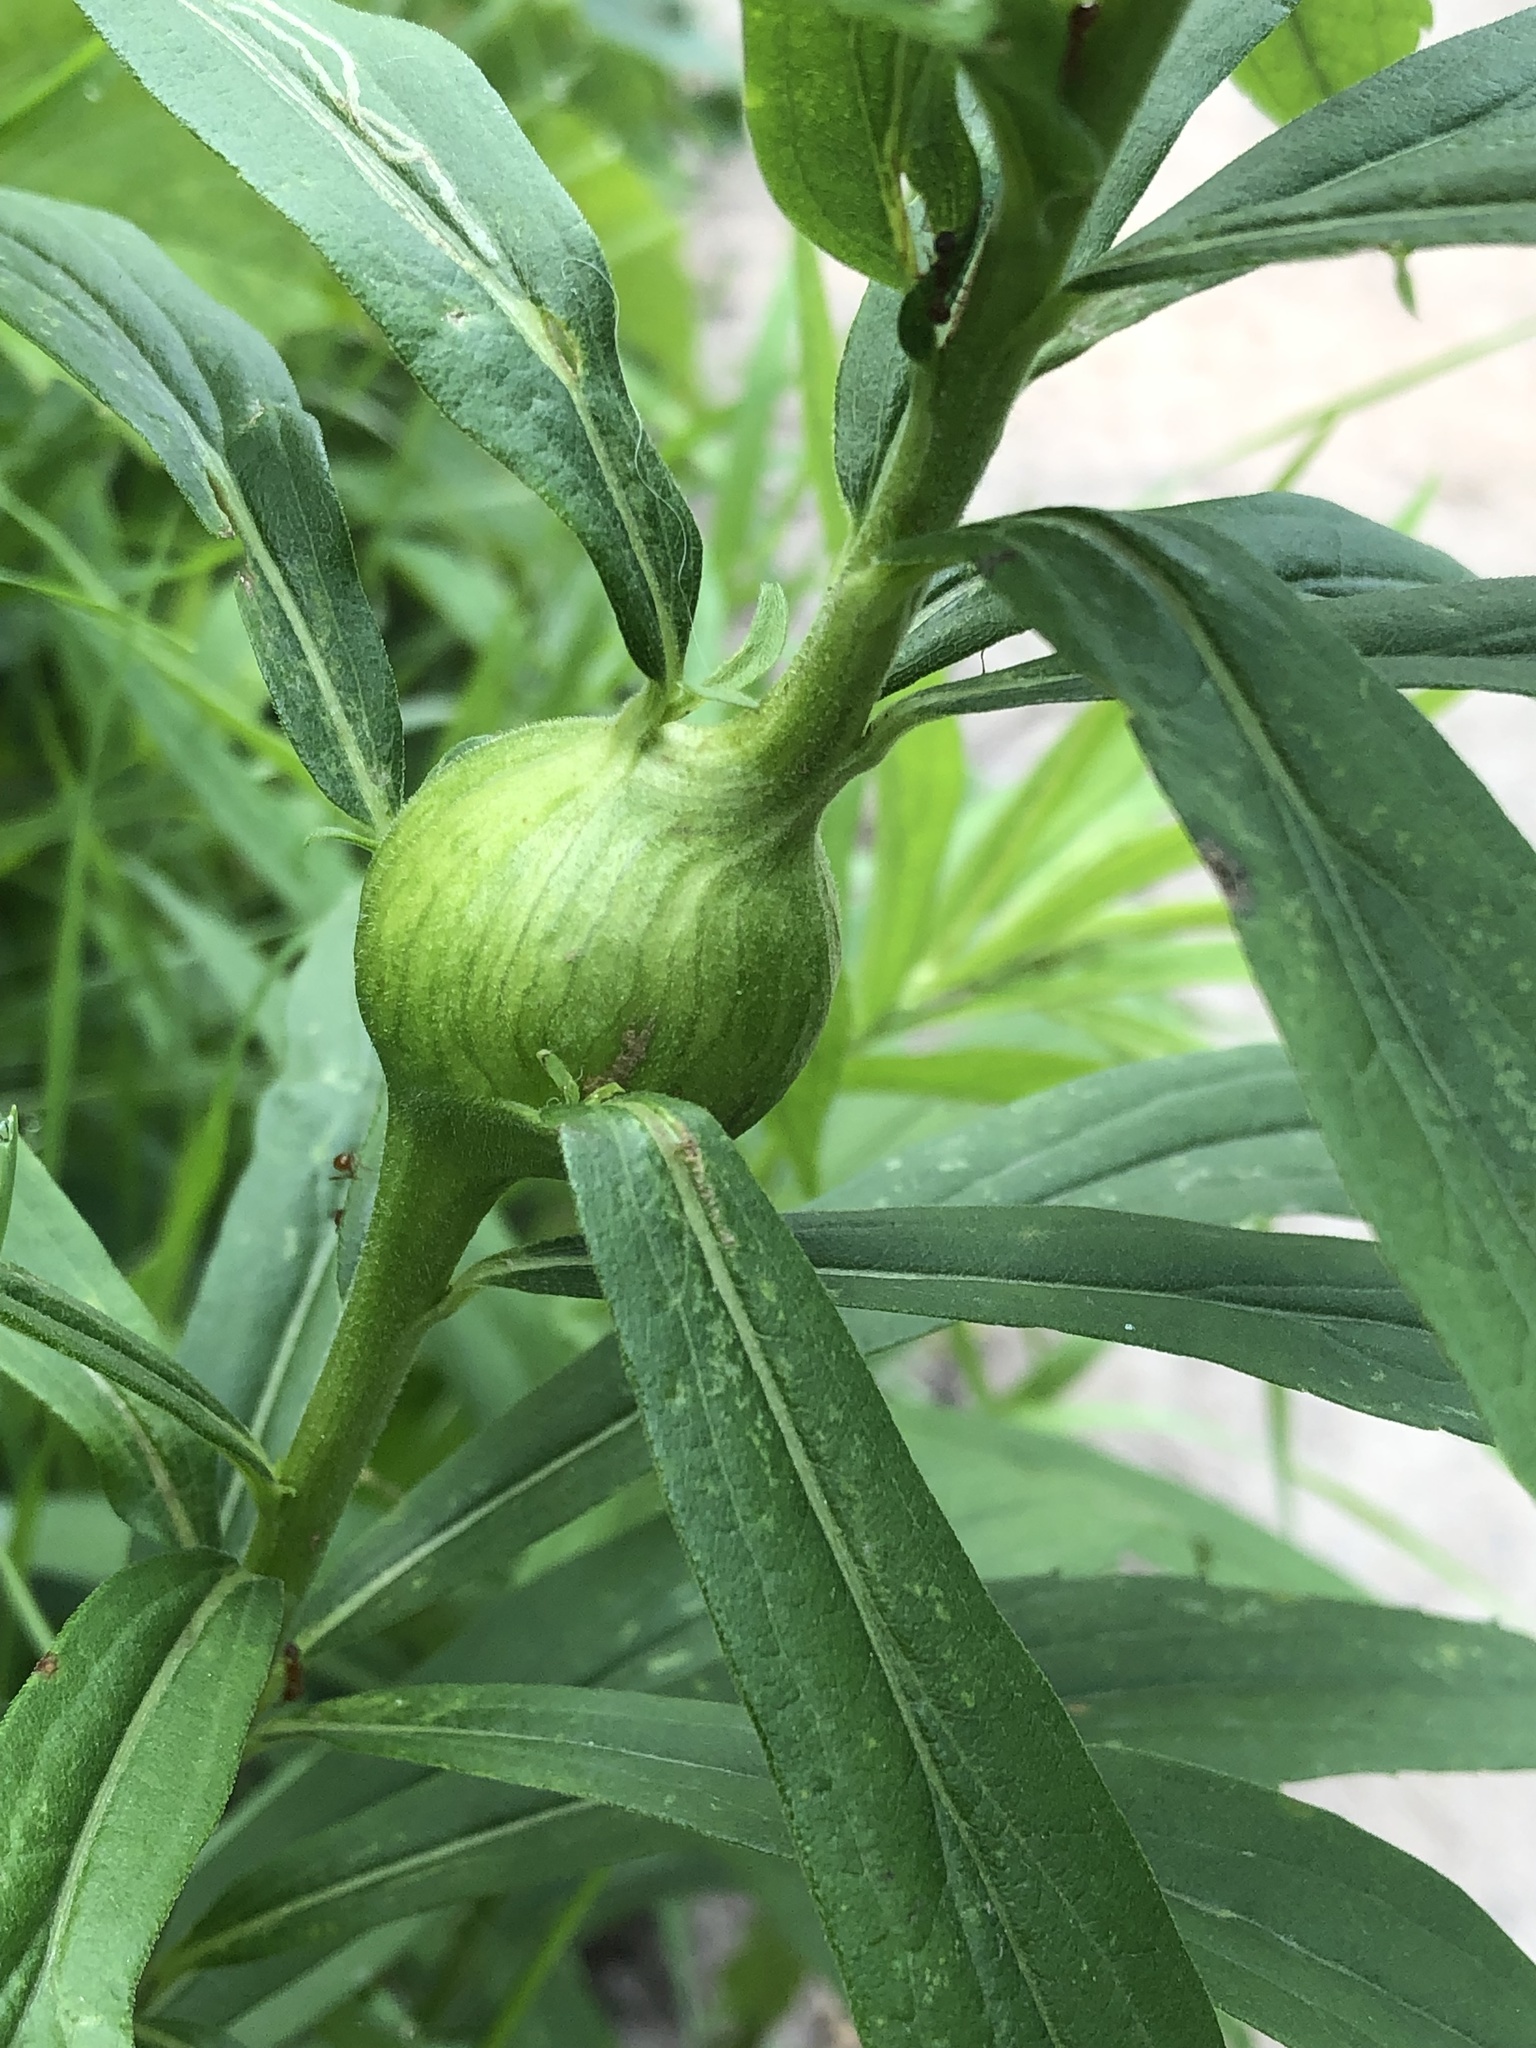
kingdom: Animalia
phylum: Arthropoda
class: Insecta
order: Diptera
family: Tephritidae
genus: Eurosta
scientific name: Eurosta solidaginis
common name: Goldenrod gall fly
